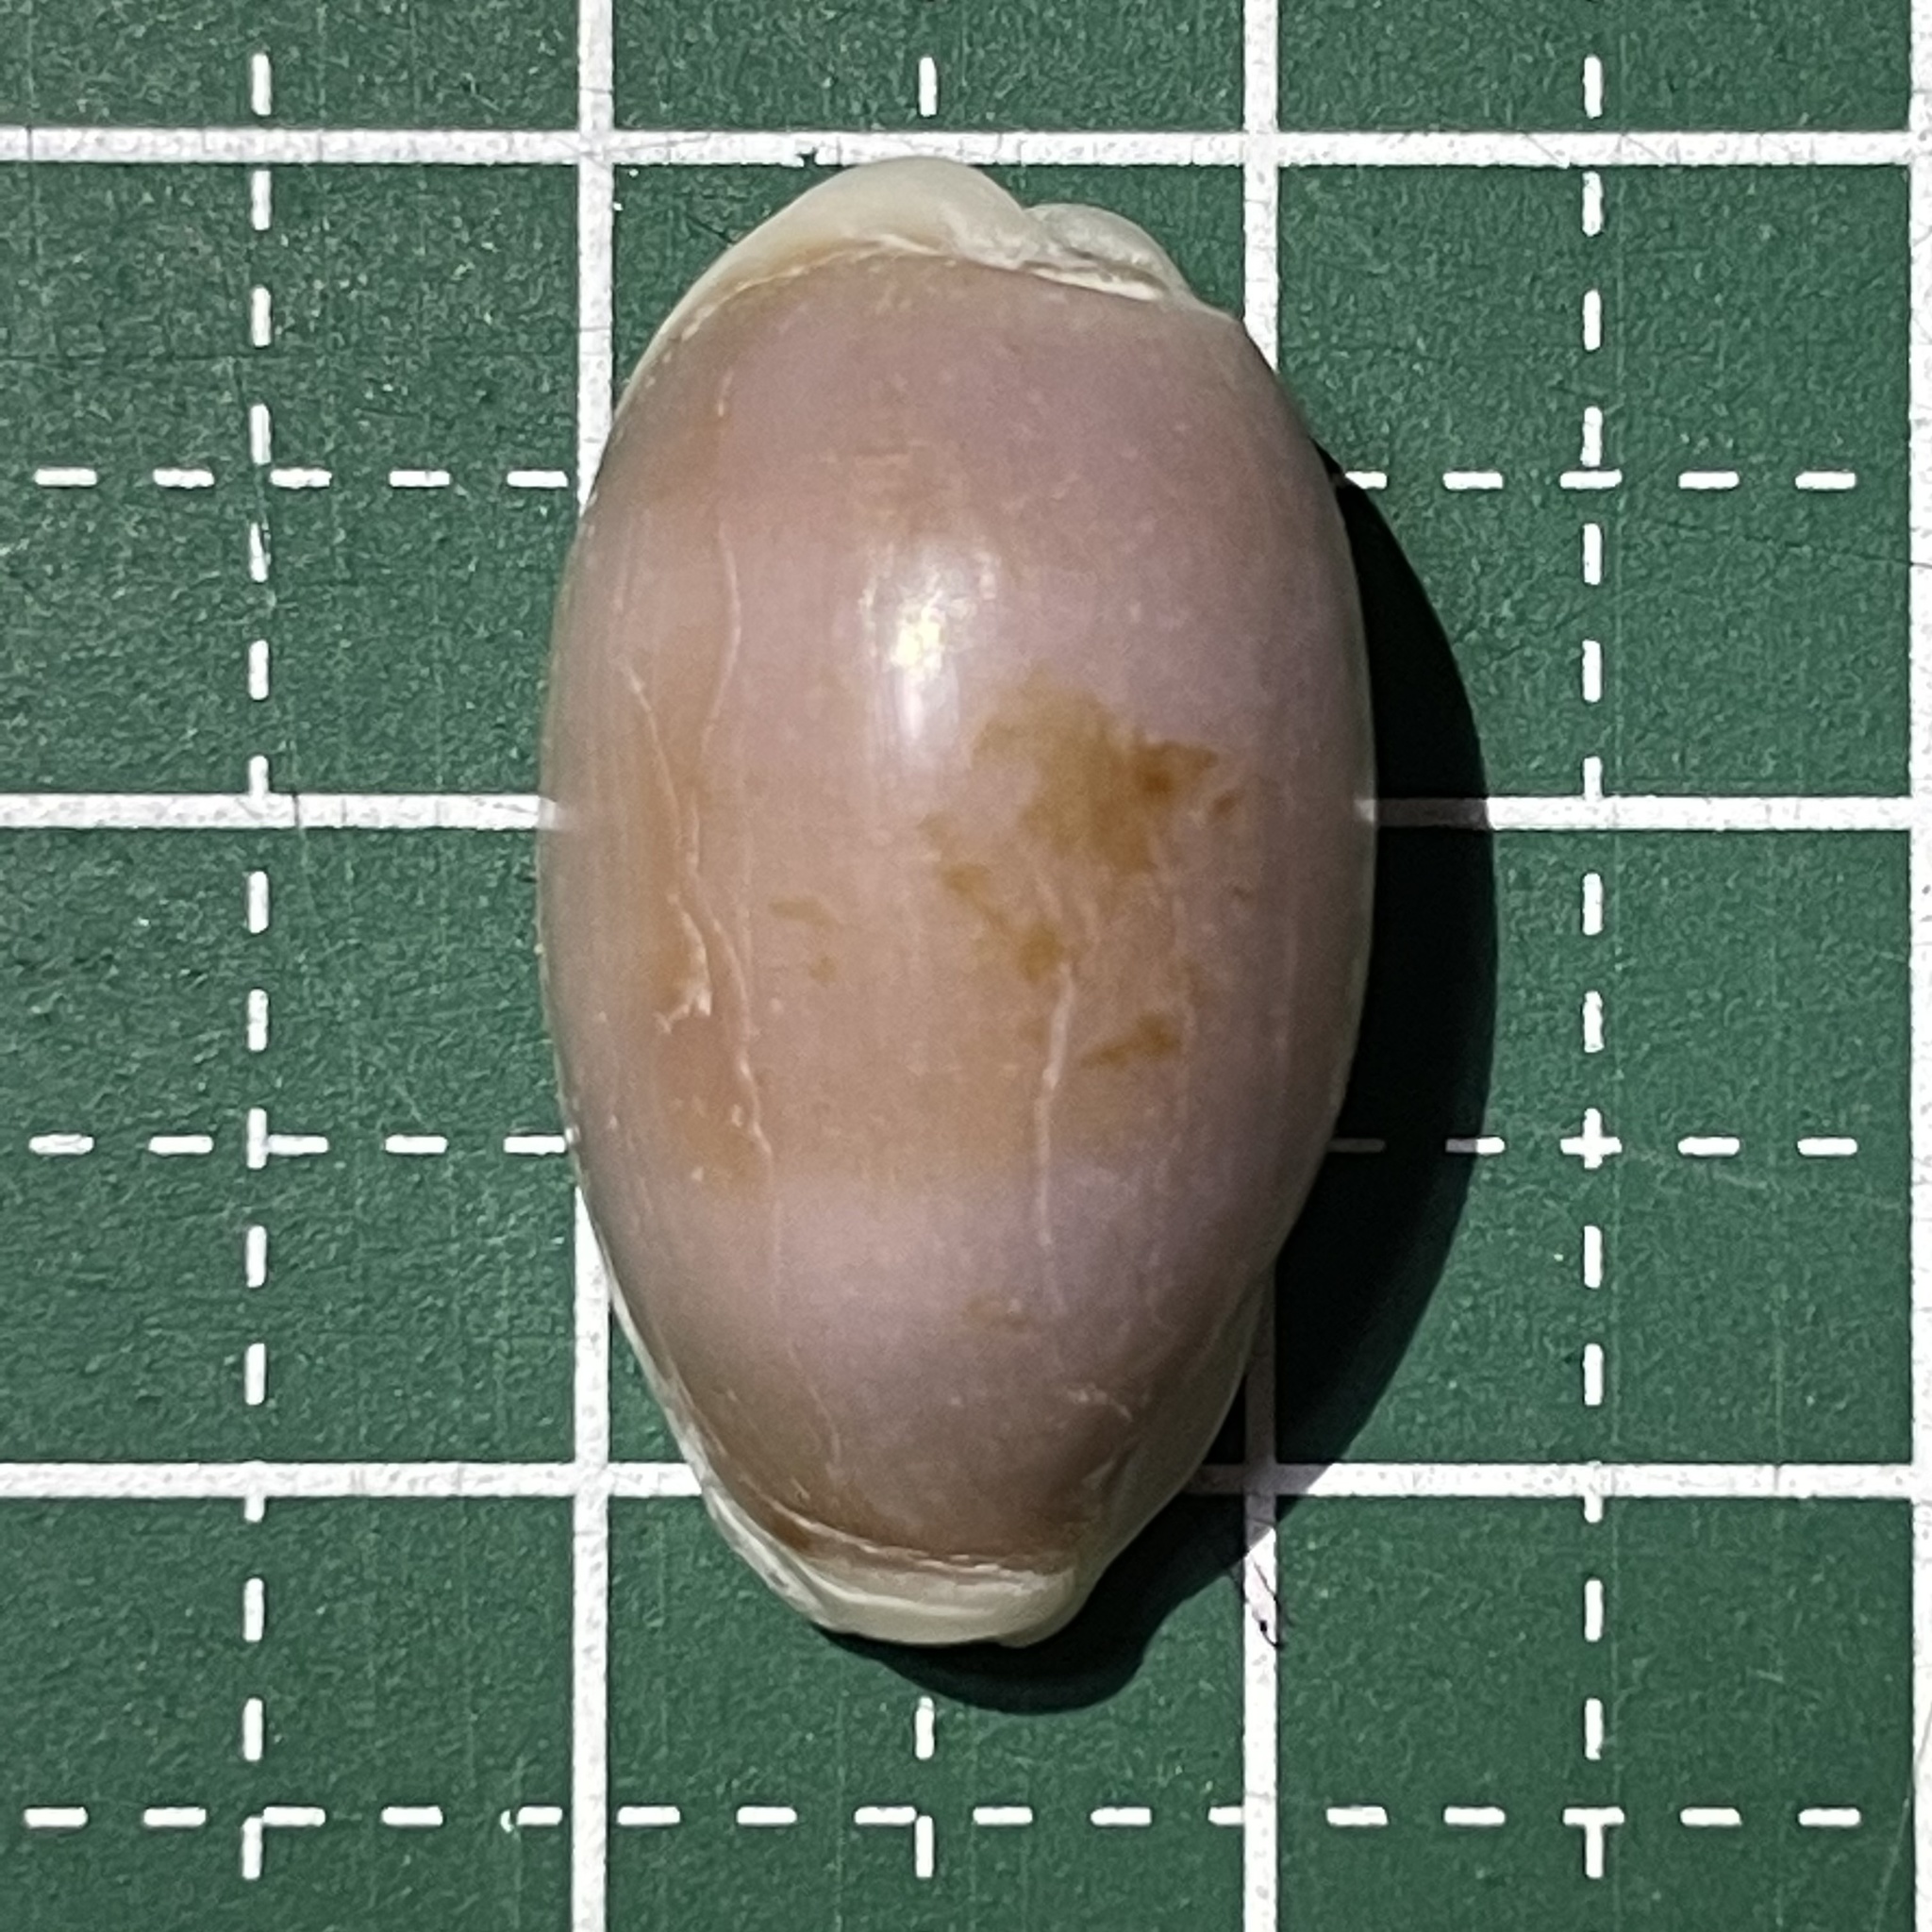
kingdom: Animalia
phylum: Mollusca
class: Gastropoda
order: Littorinimorpha
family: Cypraeidae
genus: Erronea
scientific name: Erronea errones
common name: Mistaken cowrie
